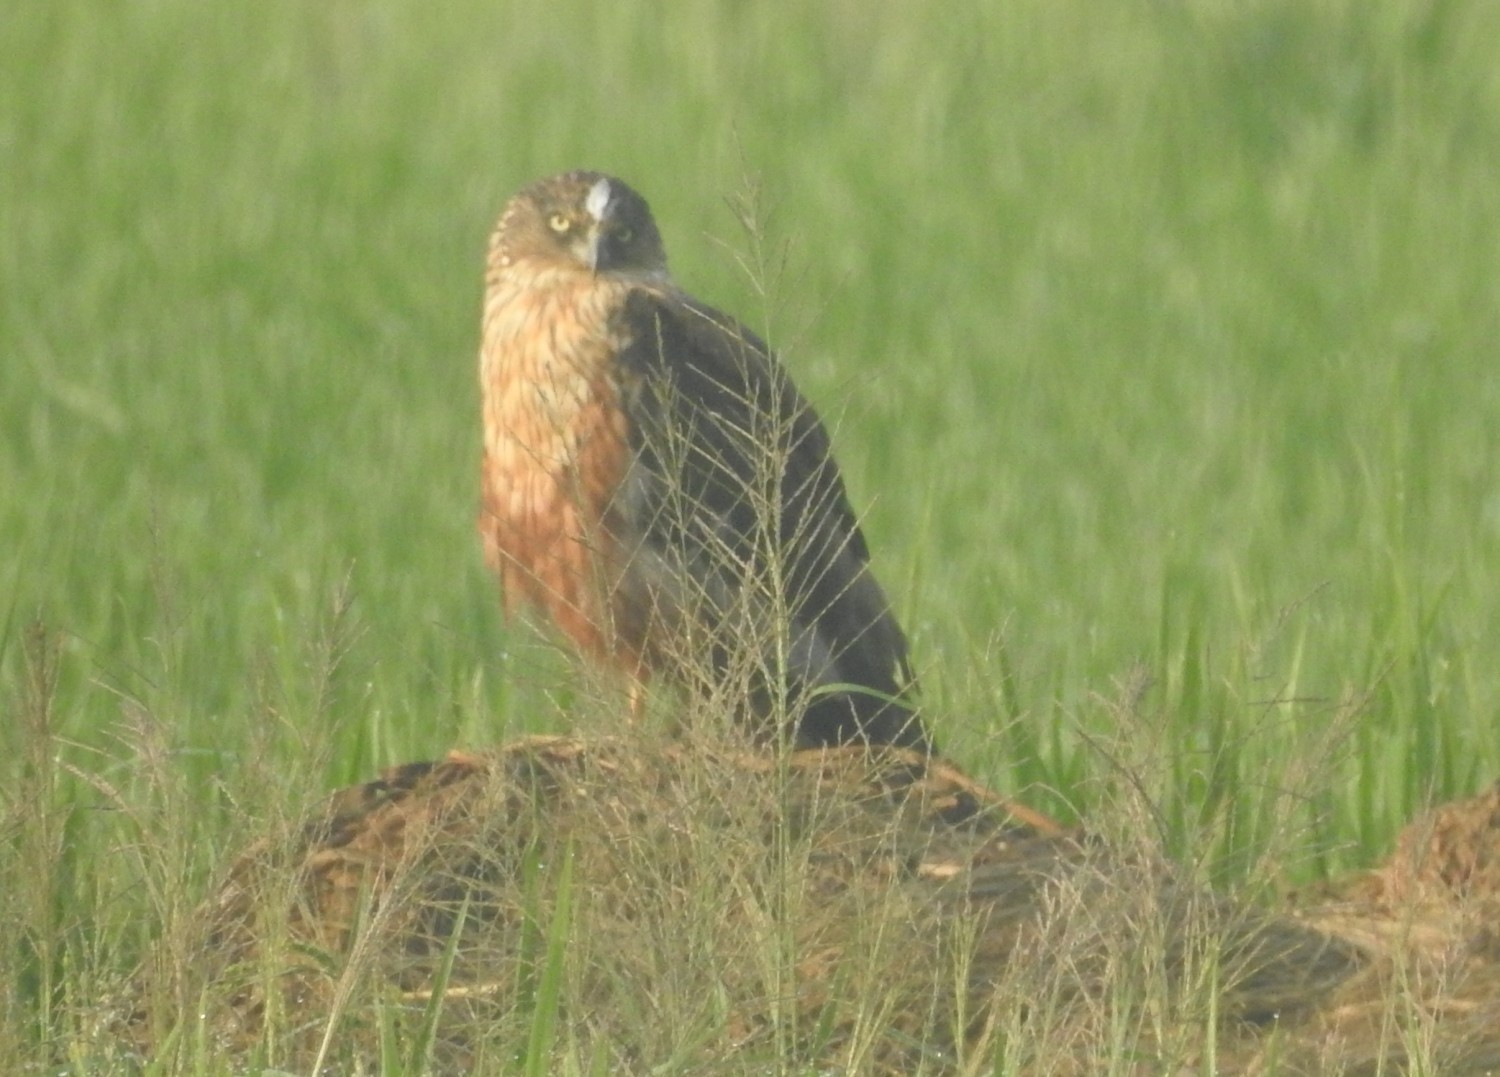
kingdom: Animalia
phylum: Chordata
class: Aves
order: Accipitriformes
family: Accipitridae
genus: Circus
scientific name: Circus aeruginosus
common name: Western marsh harrier
